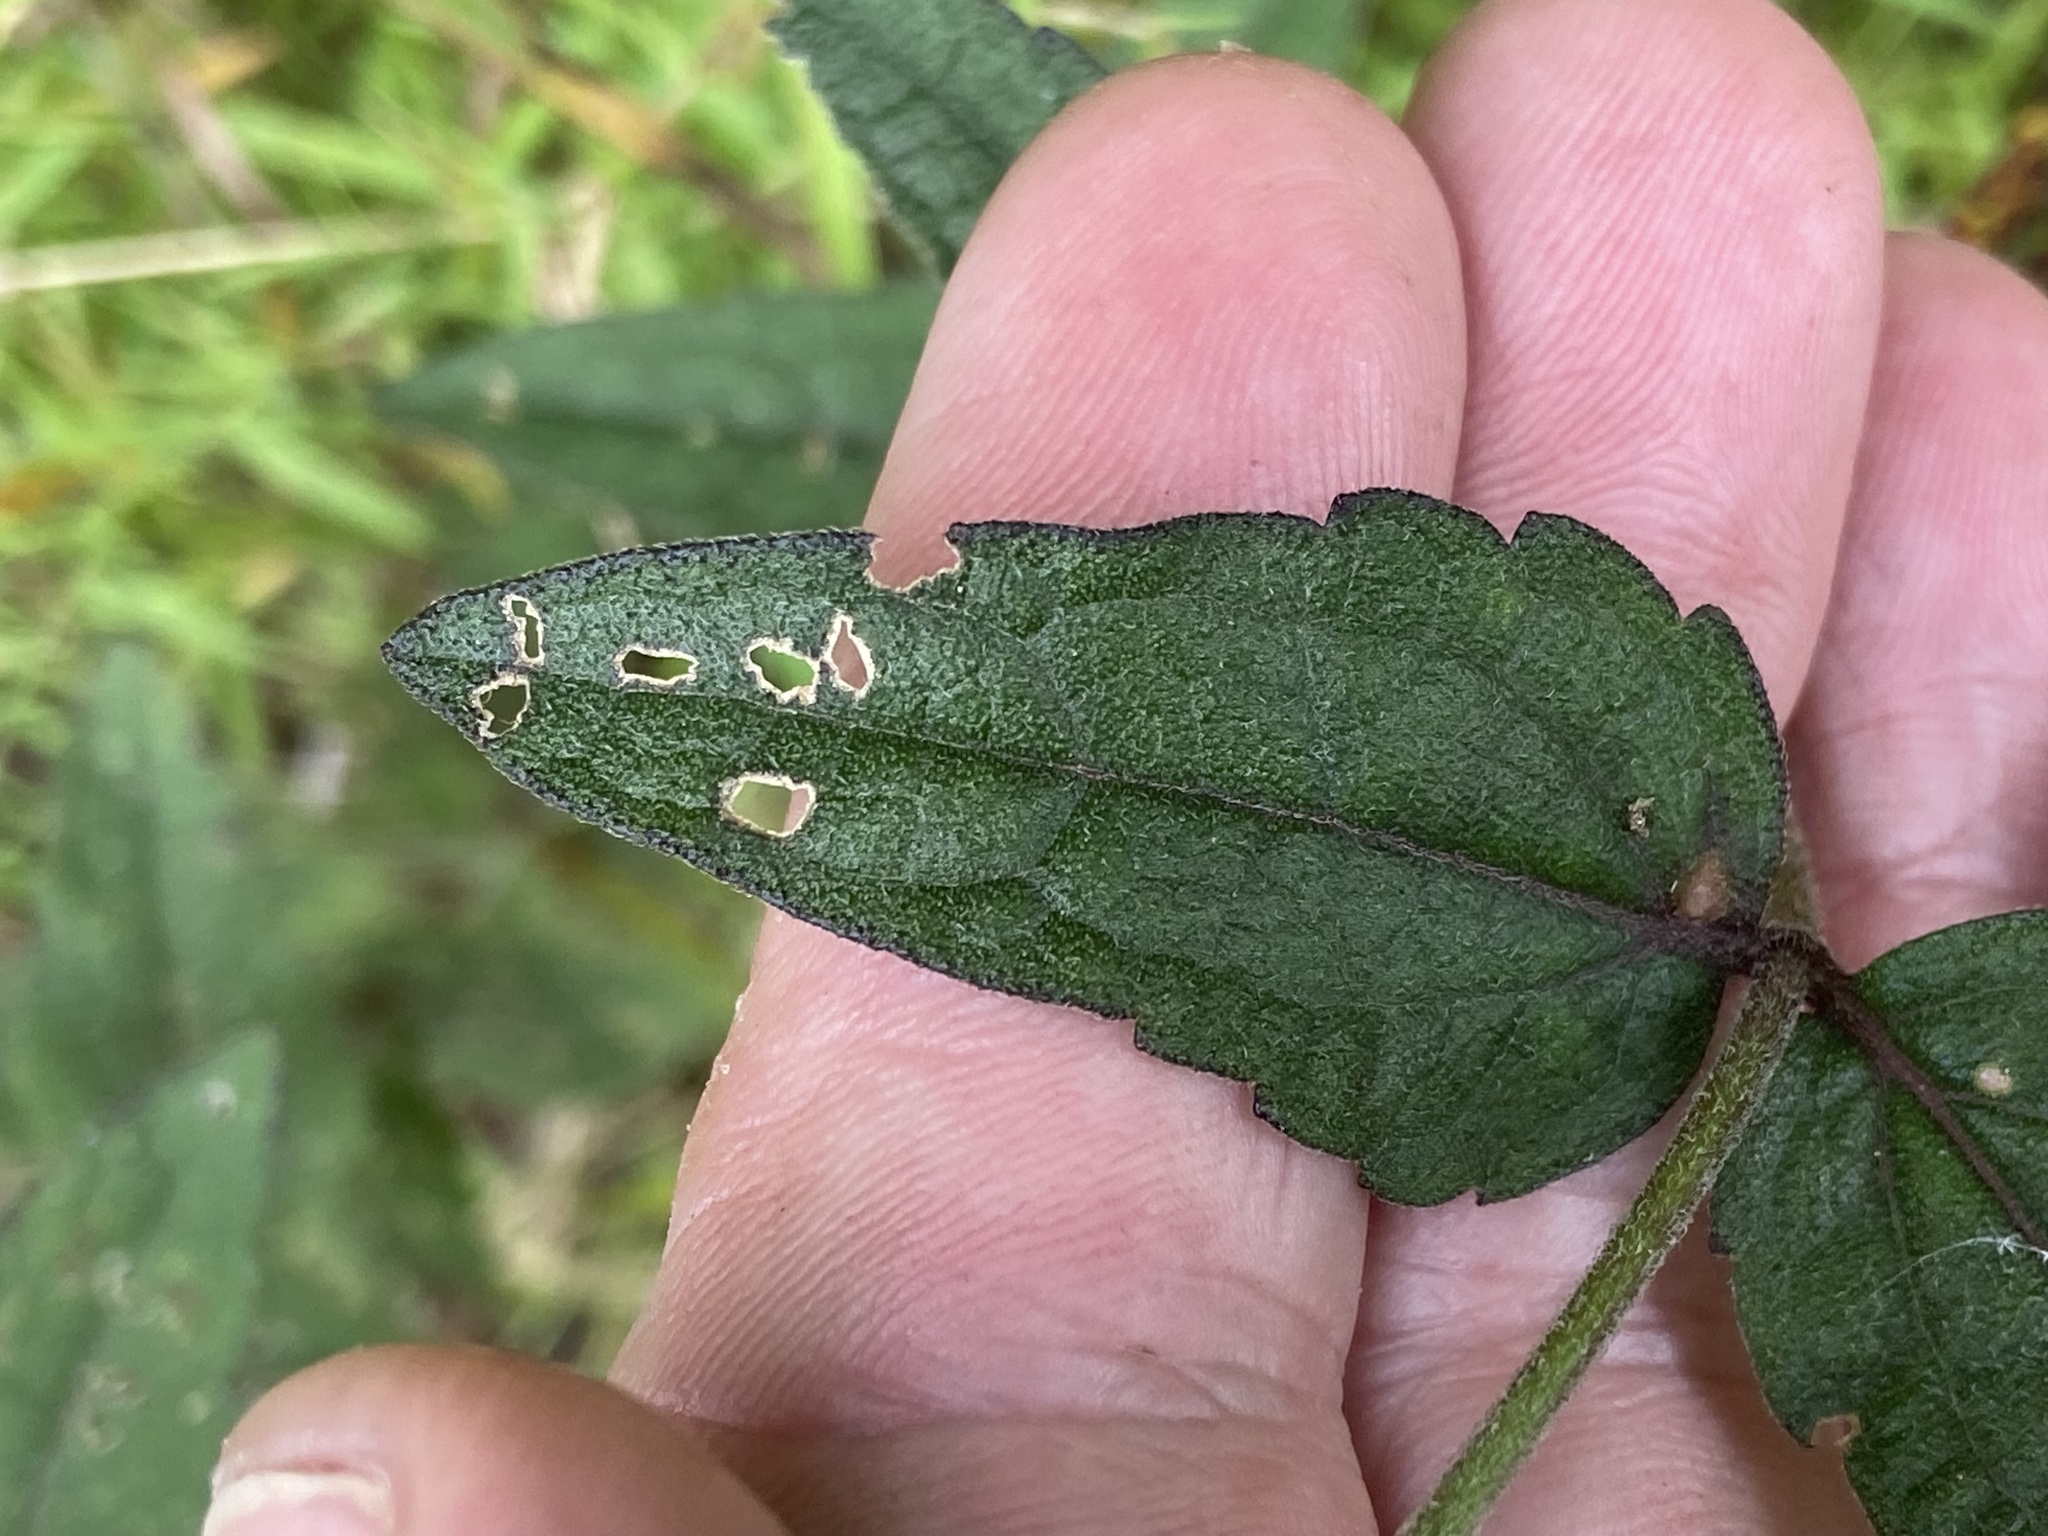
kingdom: Plantae
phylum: Tracheophyta
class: Magnoliopsida
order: Asterales
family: Asteraceae
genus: Eupatorium
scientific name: Eupatorium pilosum
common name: Rough boneset
